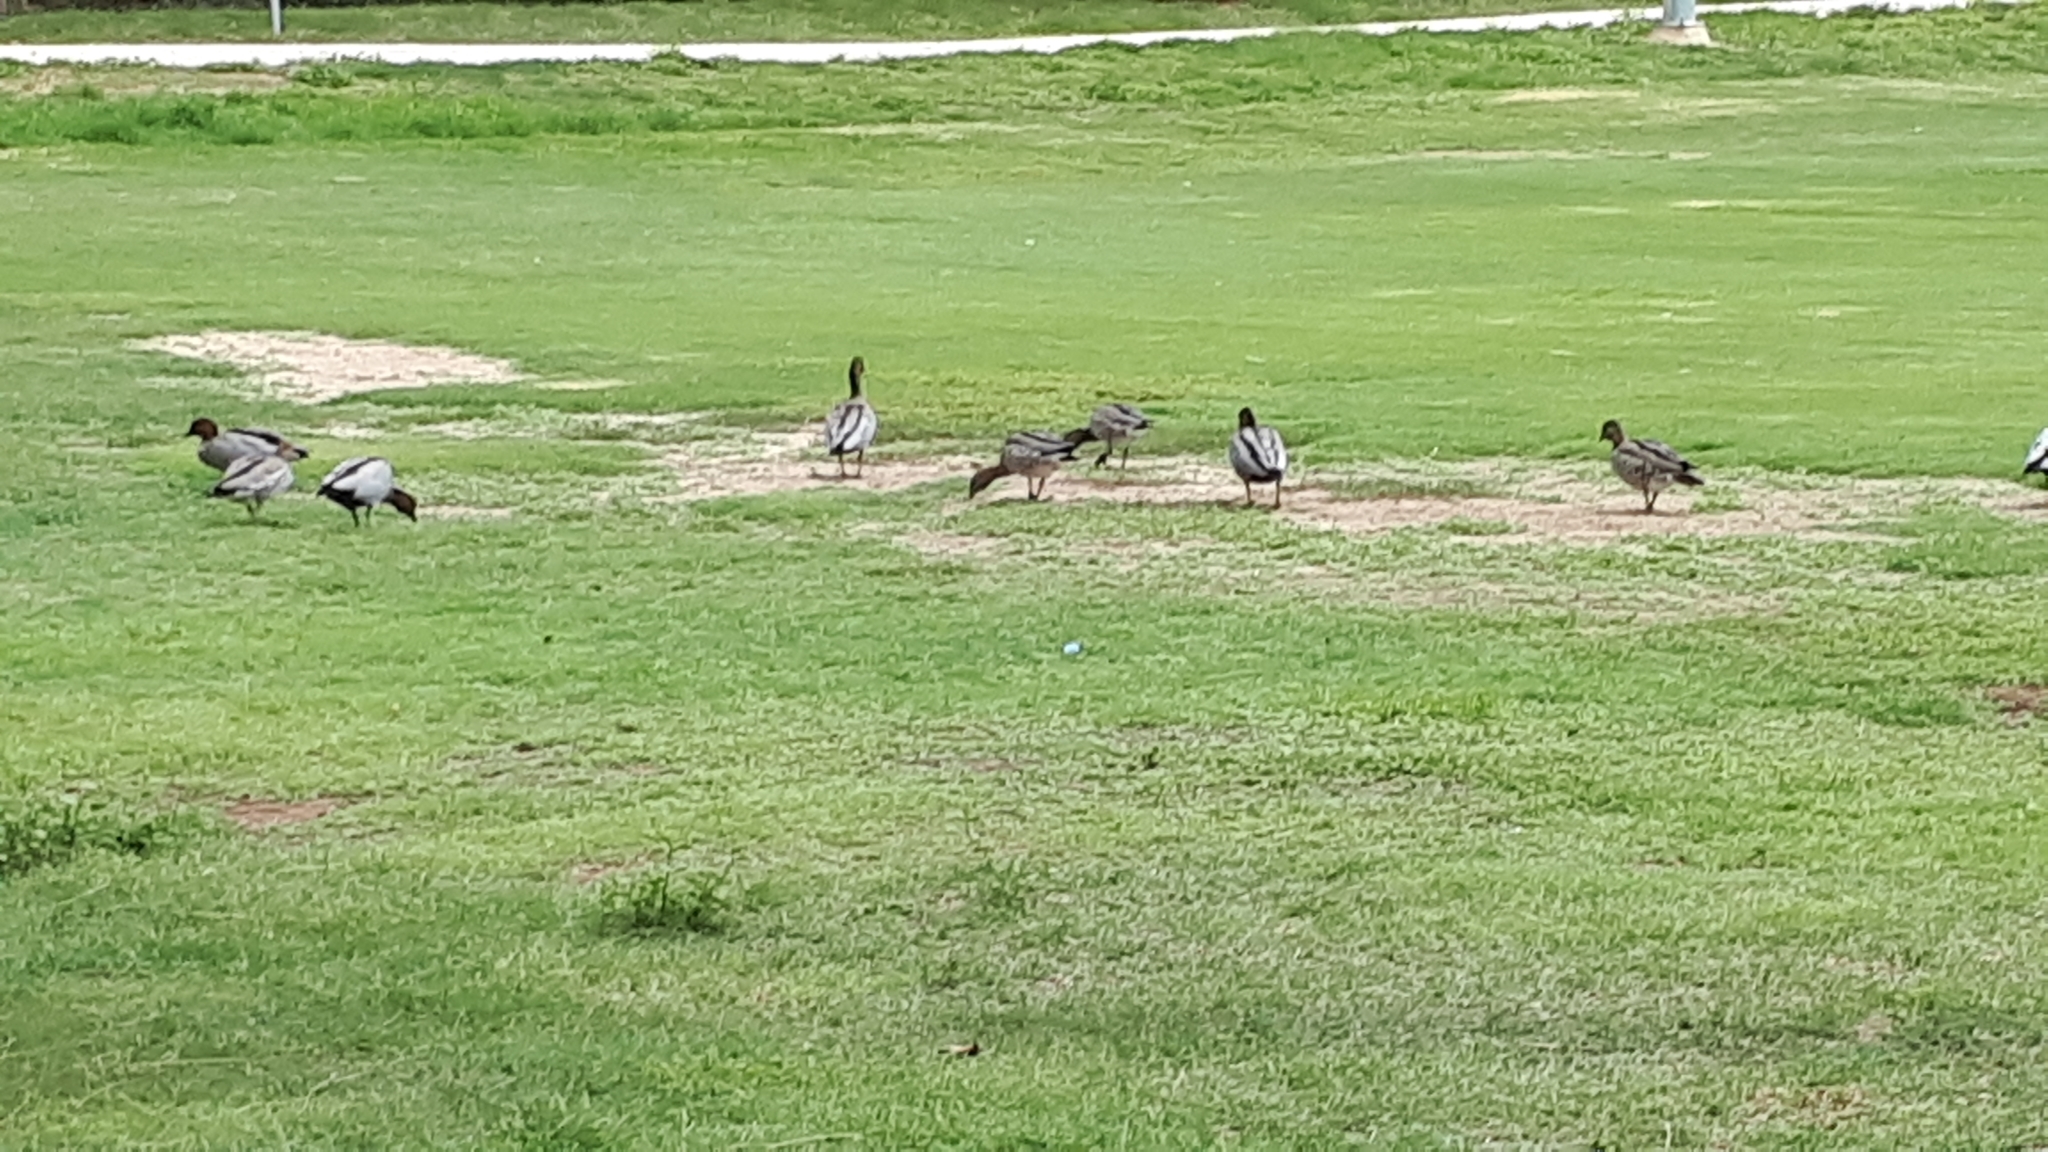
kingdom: Animalia
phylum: Chordata
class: Aves
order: Anseriformes
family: Anatidae
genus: Chenonetta
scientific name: Chenonetta jubata
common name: Maned duck
